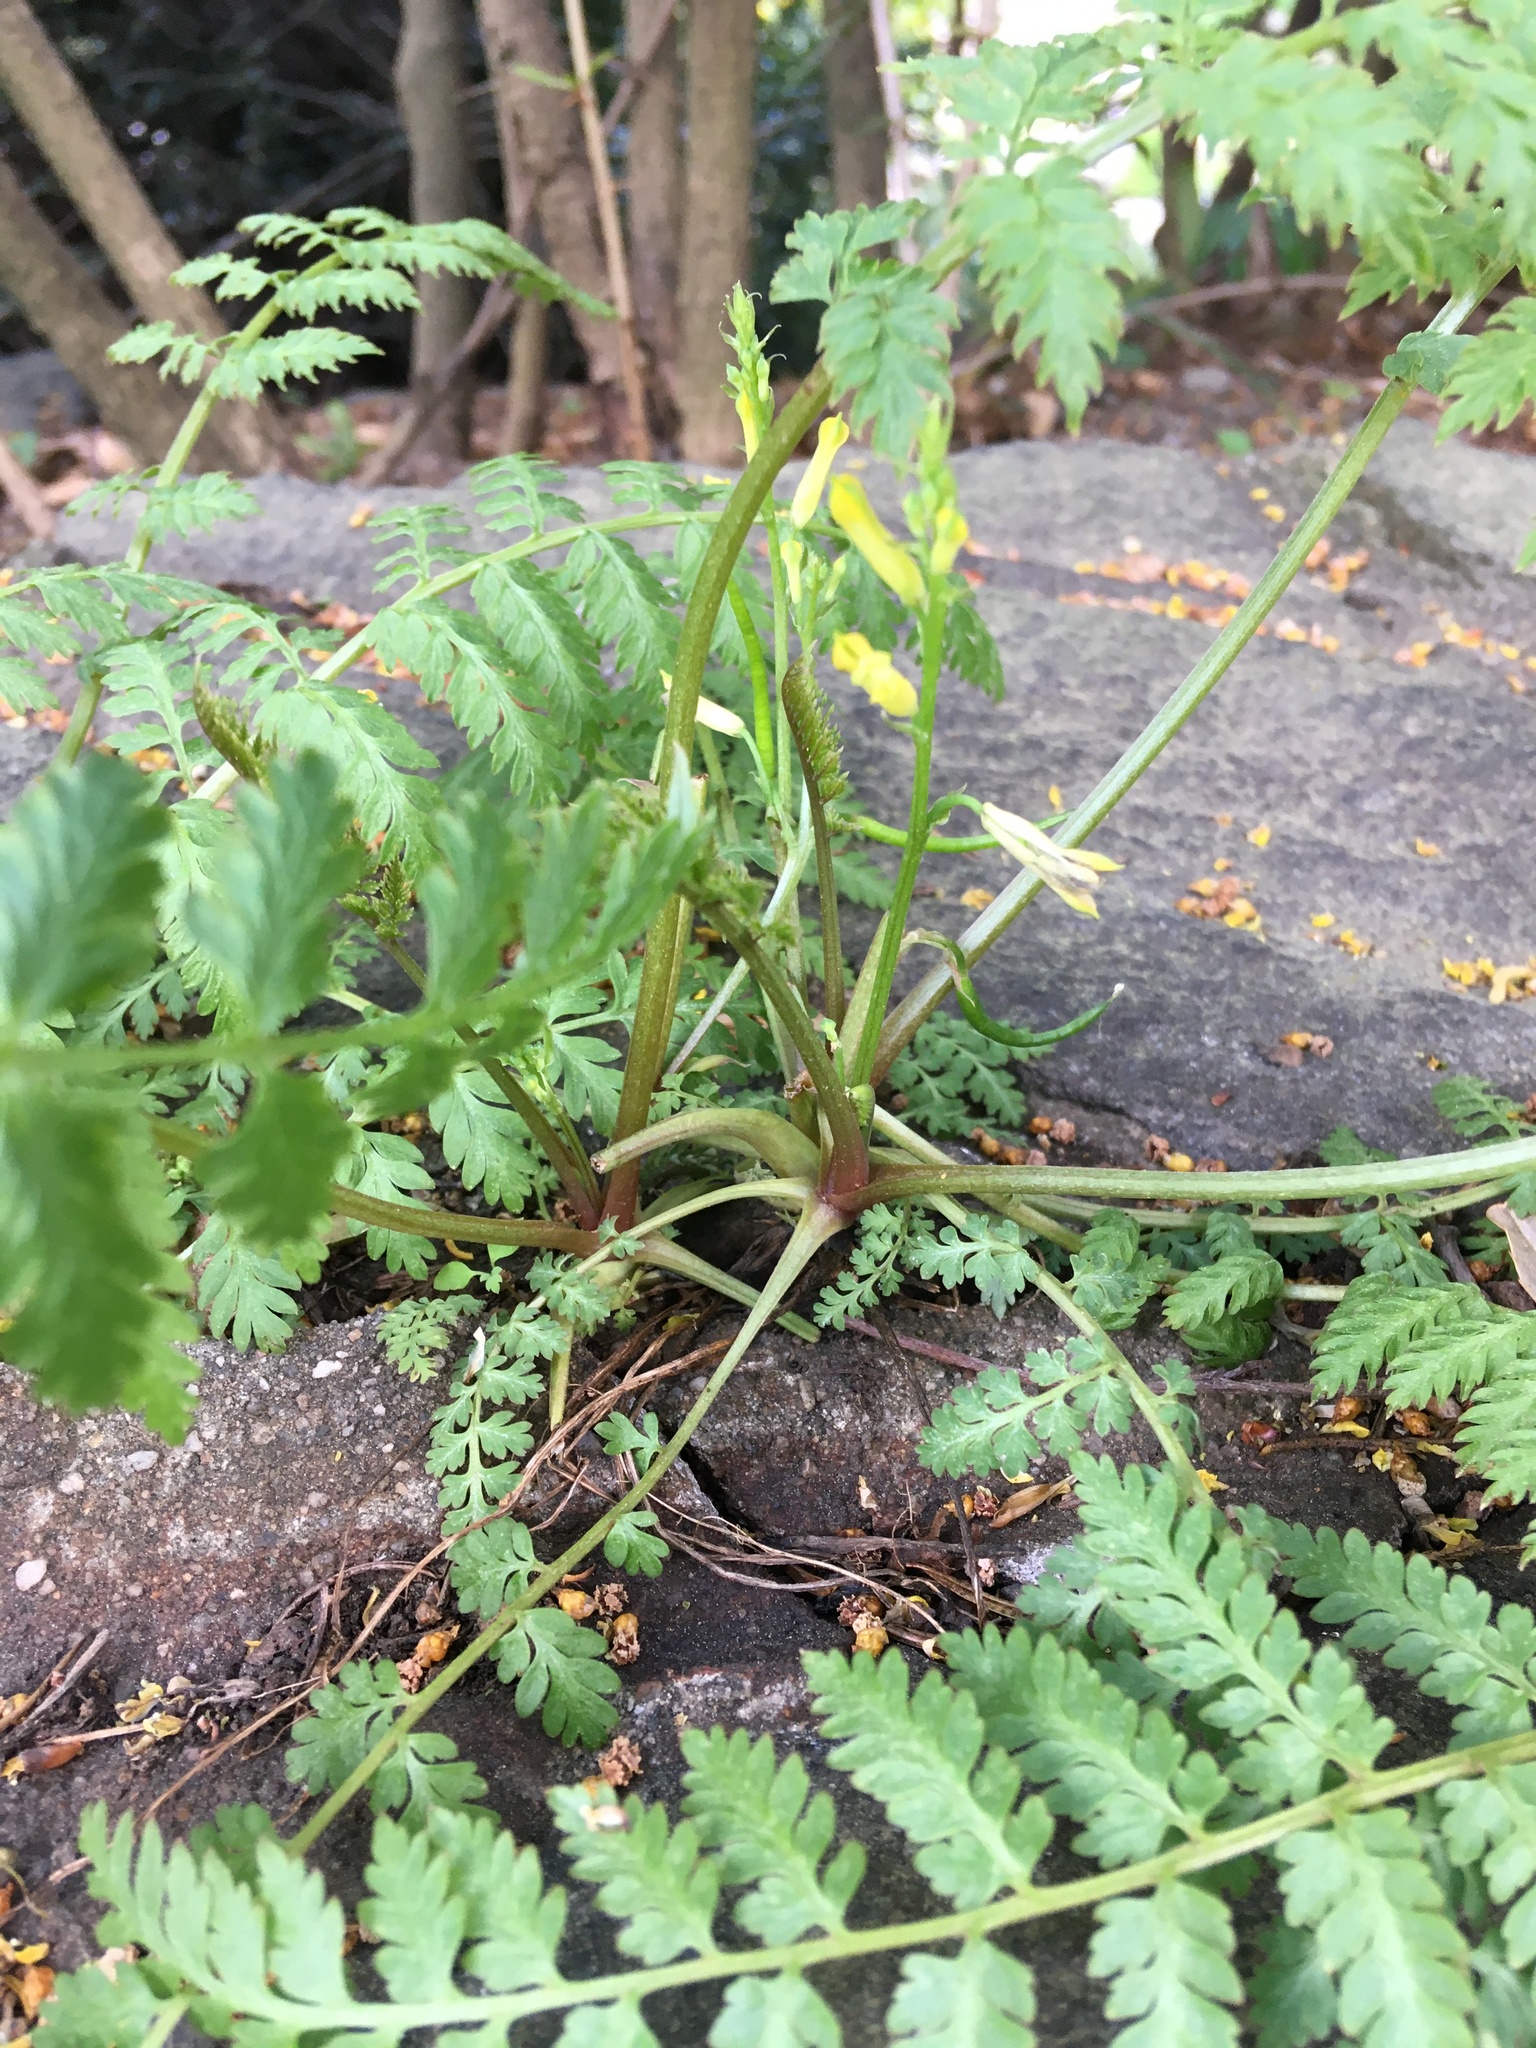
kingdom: Plantae
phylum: Tracheophyta
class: Magnoliopsida
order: Ranunculales
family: Papaveraceae
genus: Corydalis
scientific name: Corydalis cheilanthifolia
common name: Fern-leaved corydalis
